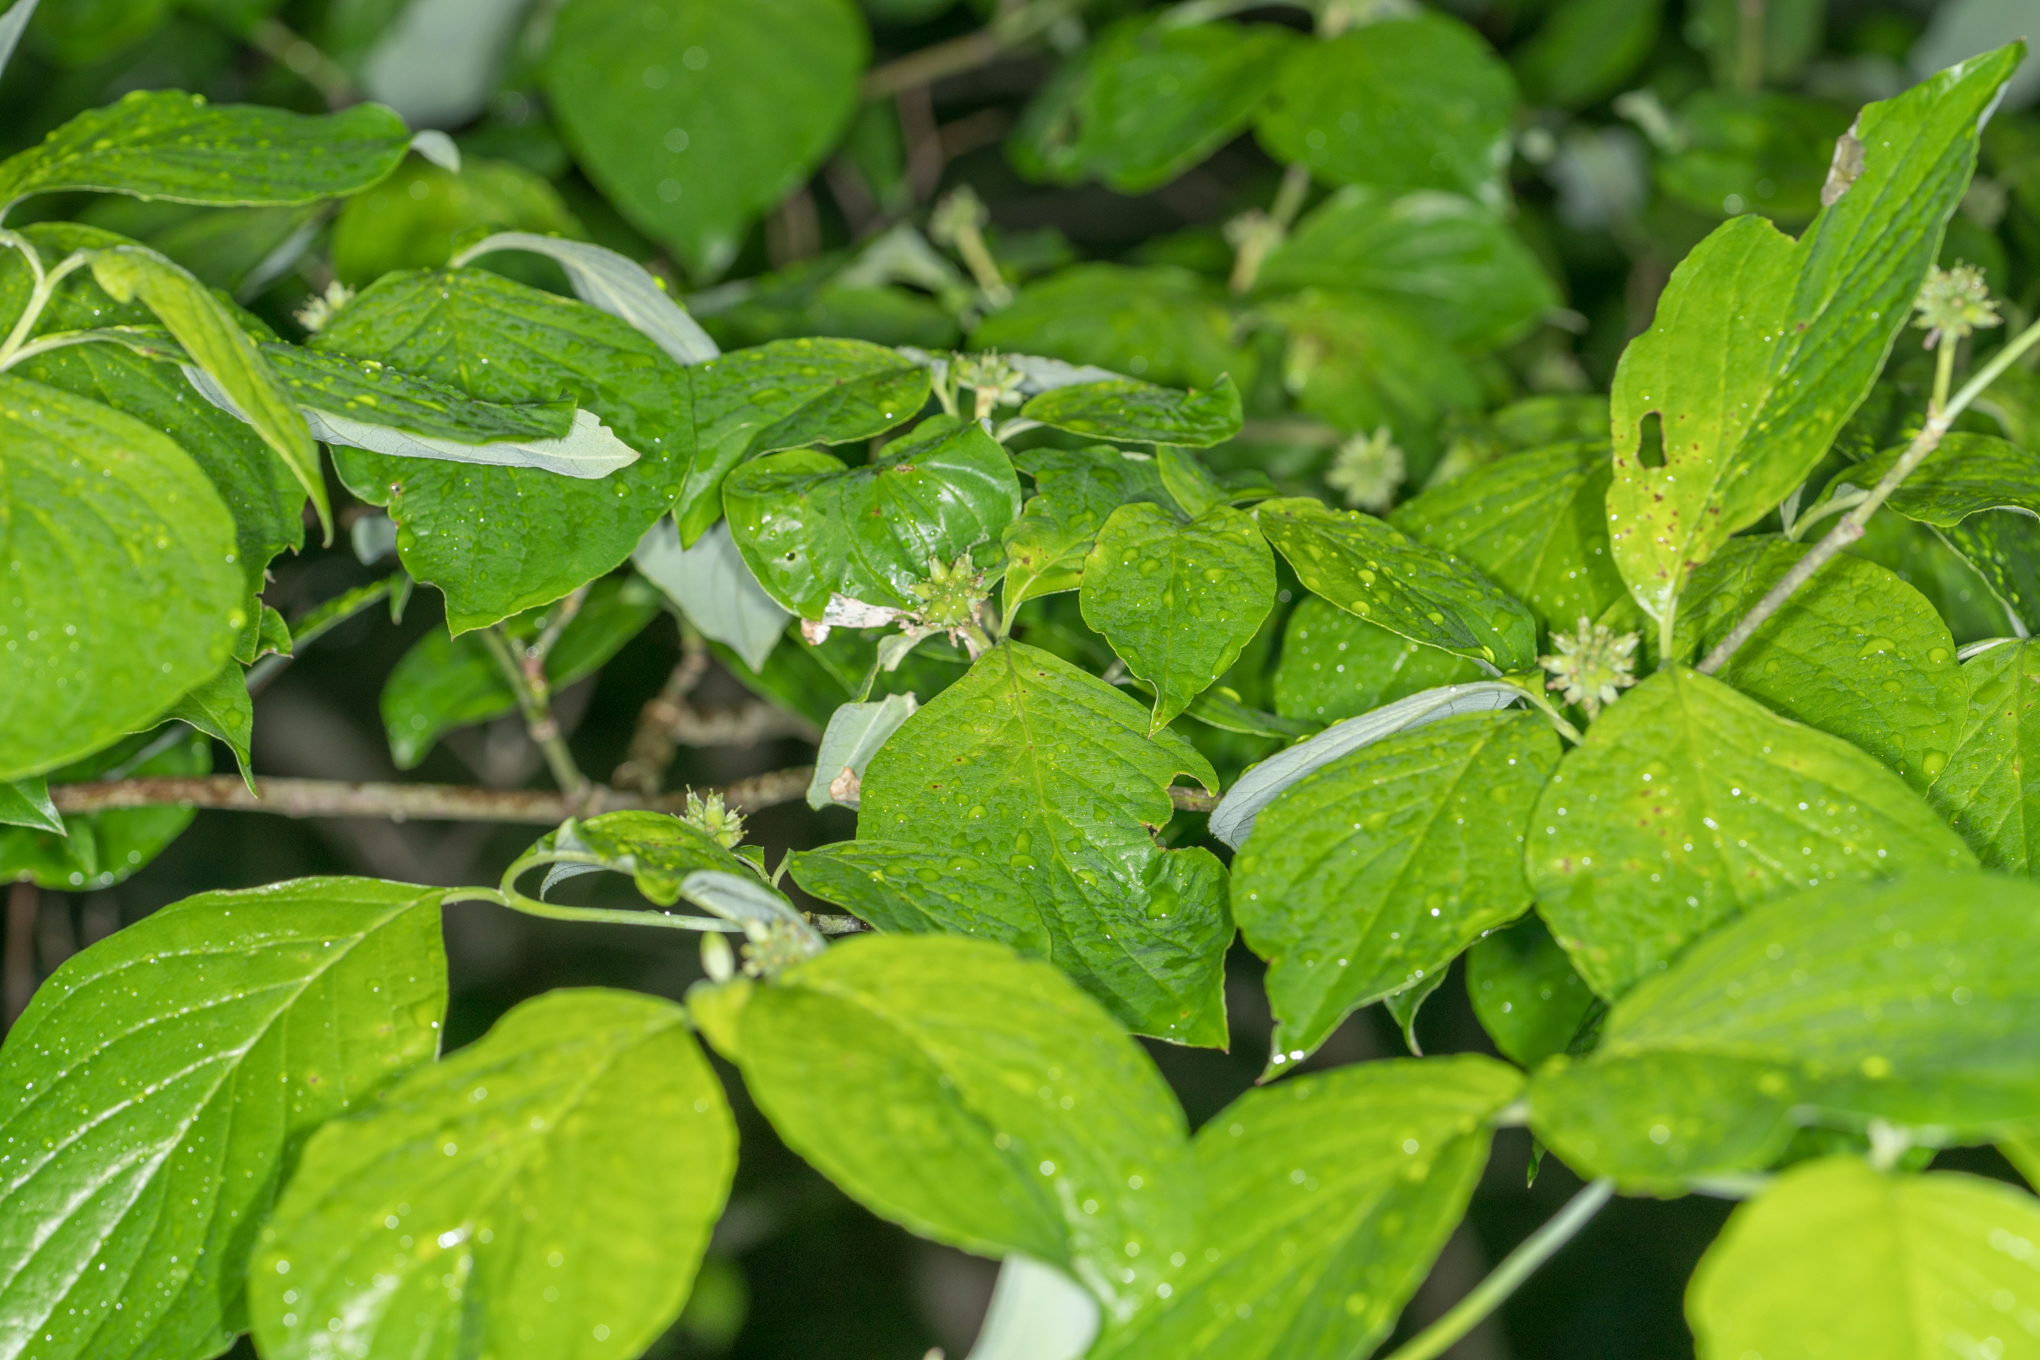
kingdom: Plantae
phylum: Tracheophyta
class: Magnoliopsida
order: Cornales
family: Cornaceae
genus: Cornus
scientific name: Cornus florida
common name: Flowering dogwood
